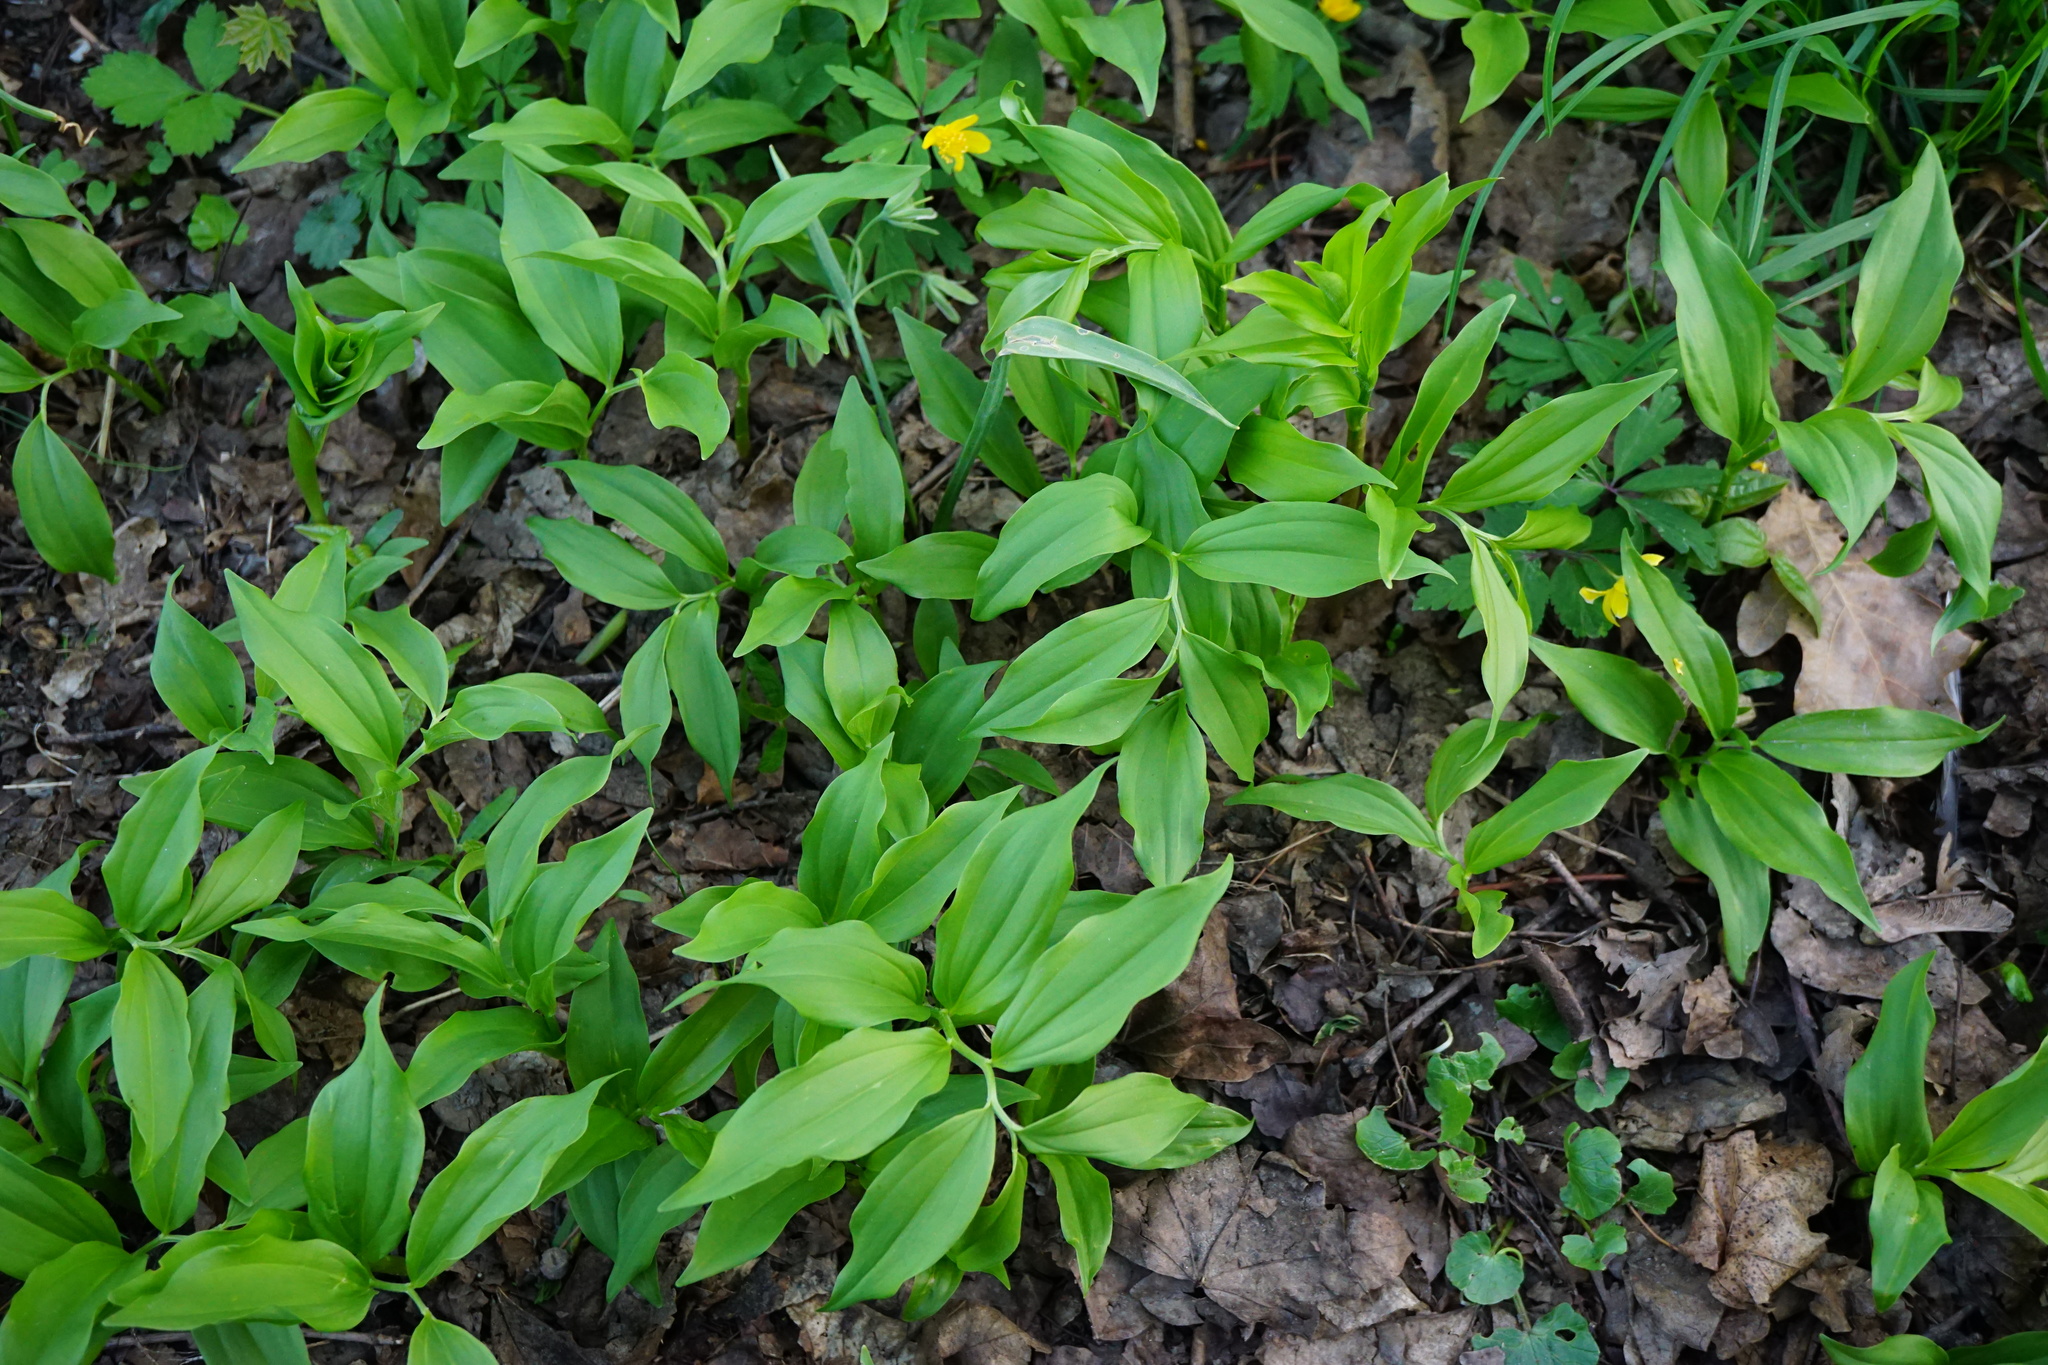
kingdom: Plantae
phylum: Tracheophyta
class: Liliopsida
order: Asparagales
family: Asparagaceae
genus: Polygonatum
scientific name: Polygonatum latifolium
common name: Broadleaf solomon's seal
